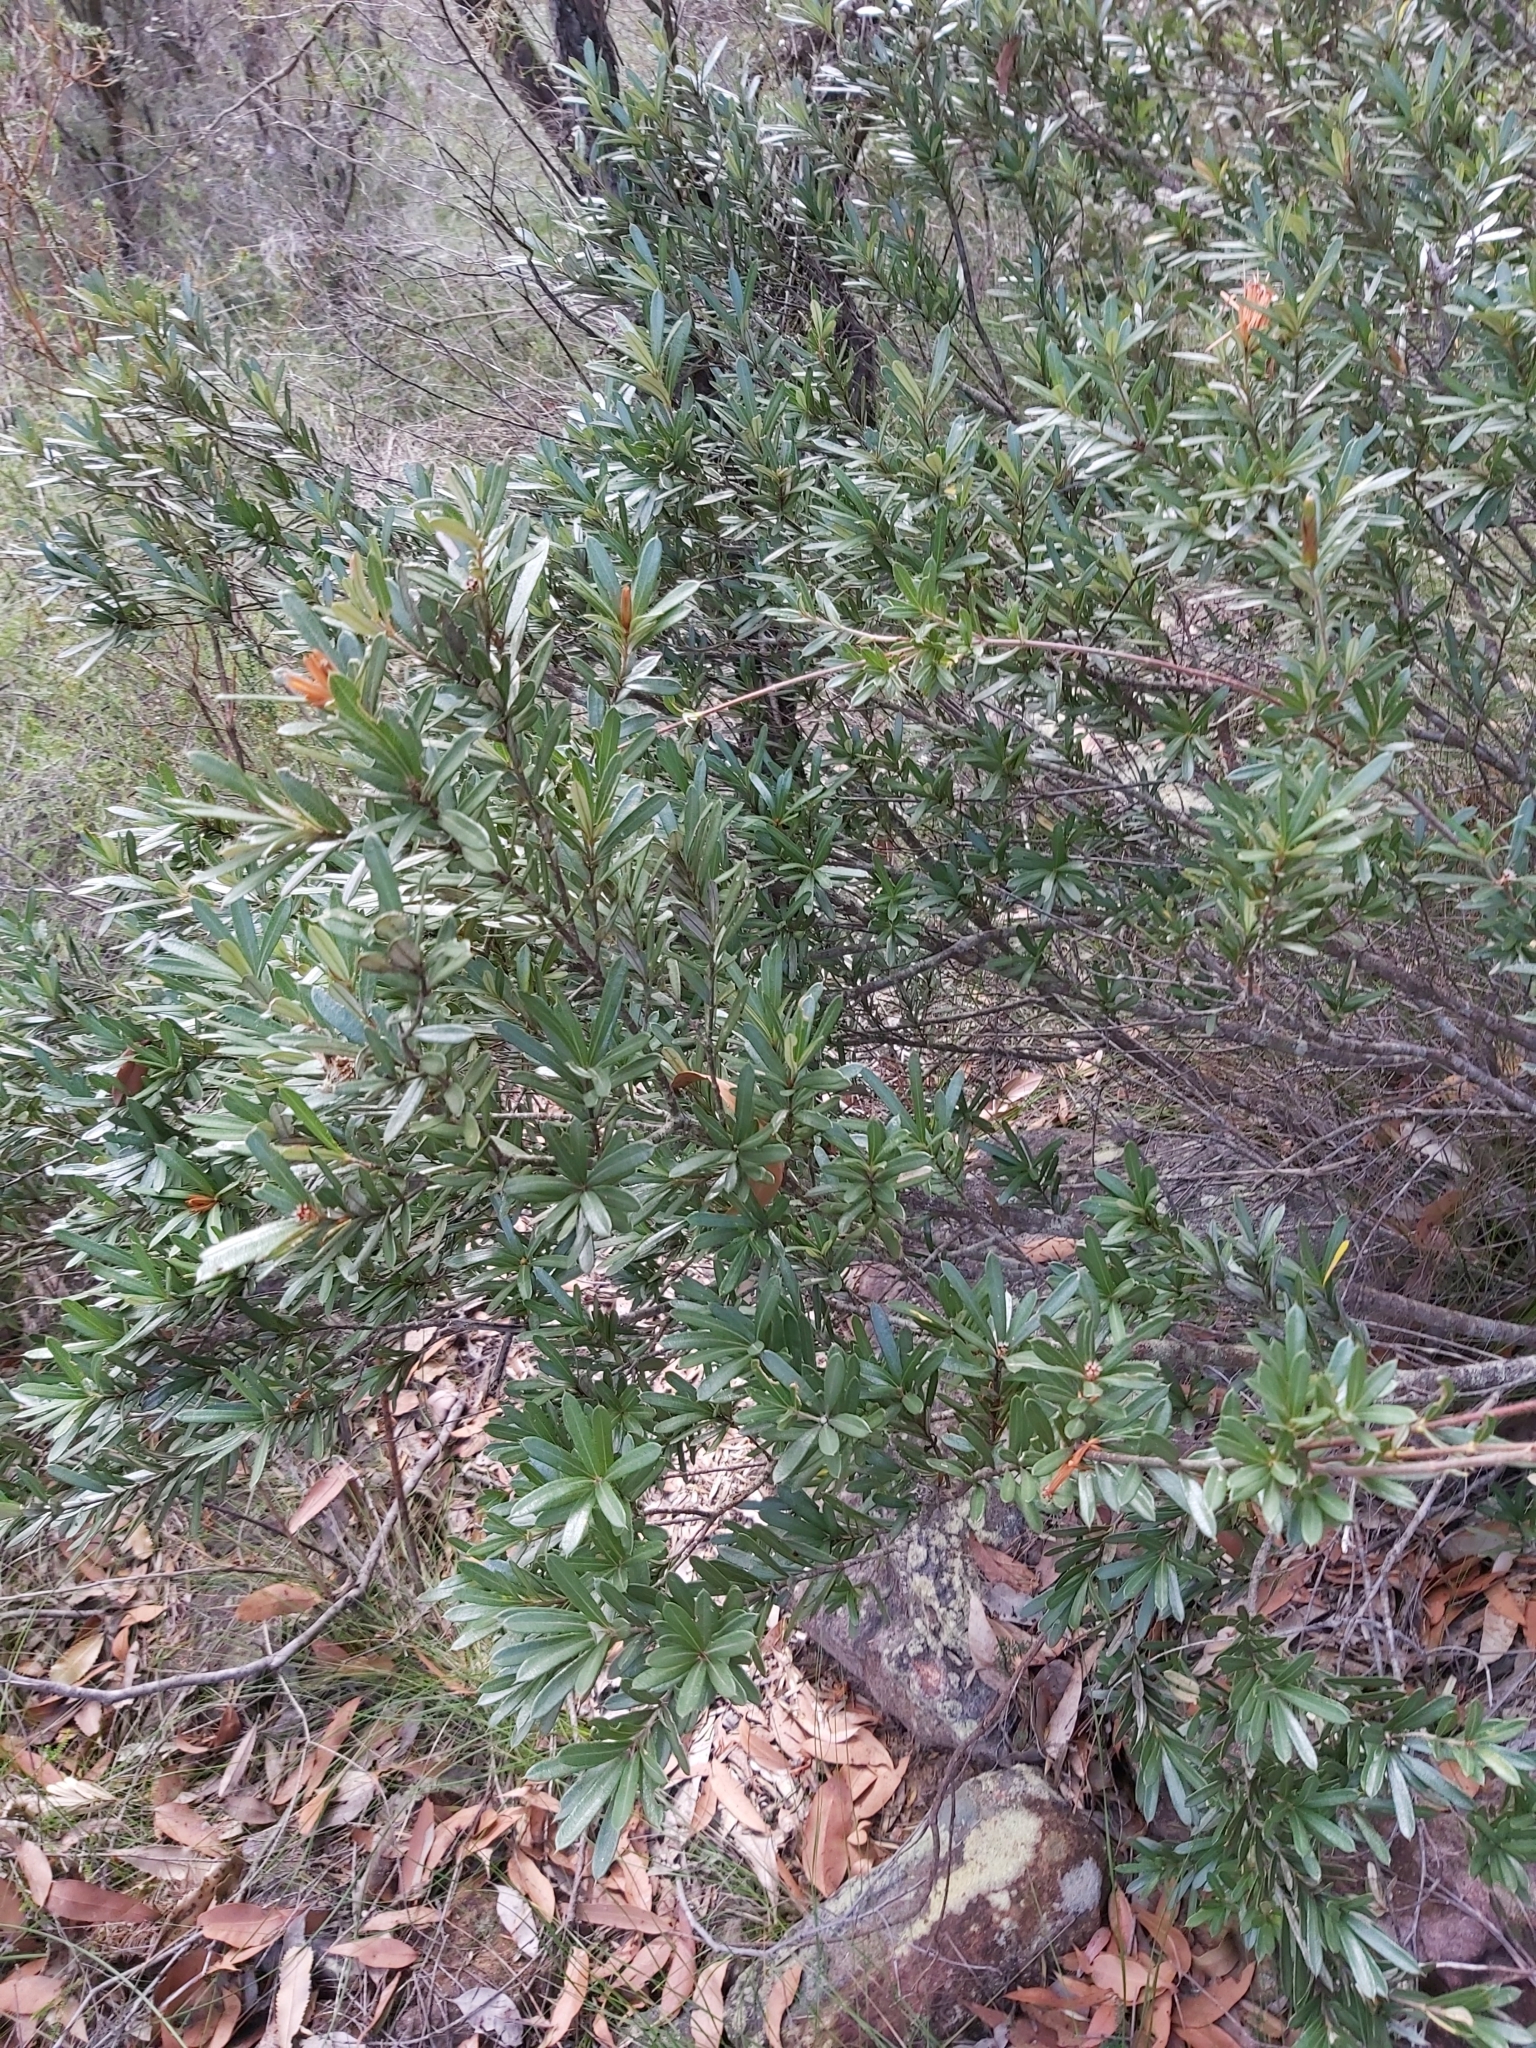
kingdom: Plantae
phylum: Tracheophyta
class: Magnoliopsida
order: Proteales
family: Proteaceae
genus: Lambertia
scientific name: Lambertia formosa
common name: Mountain-devil
